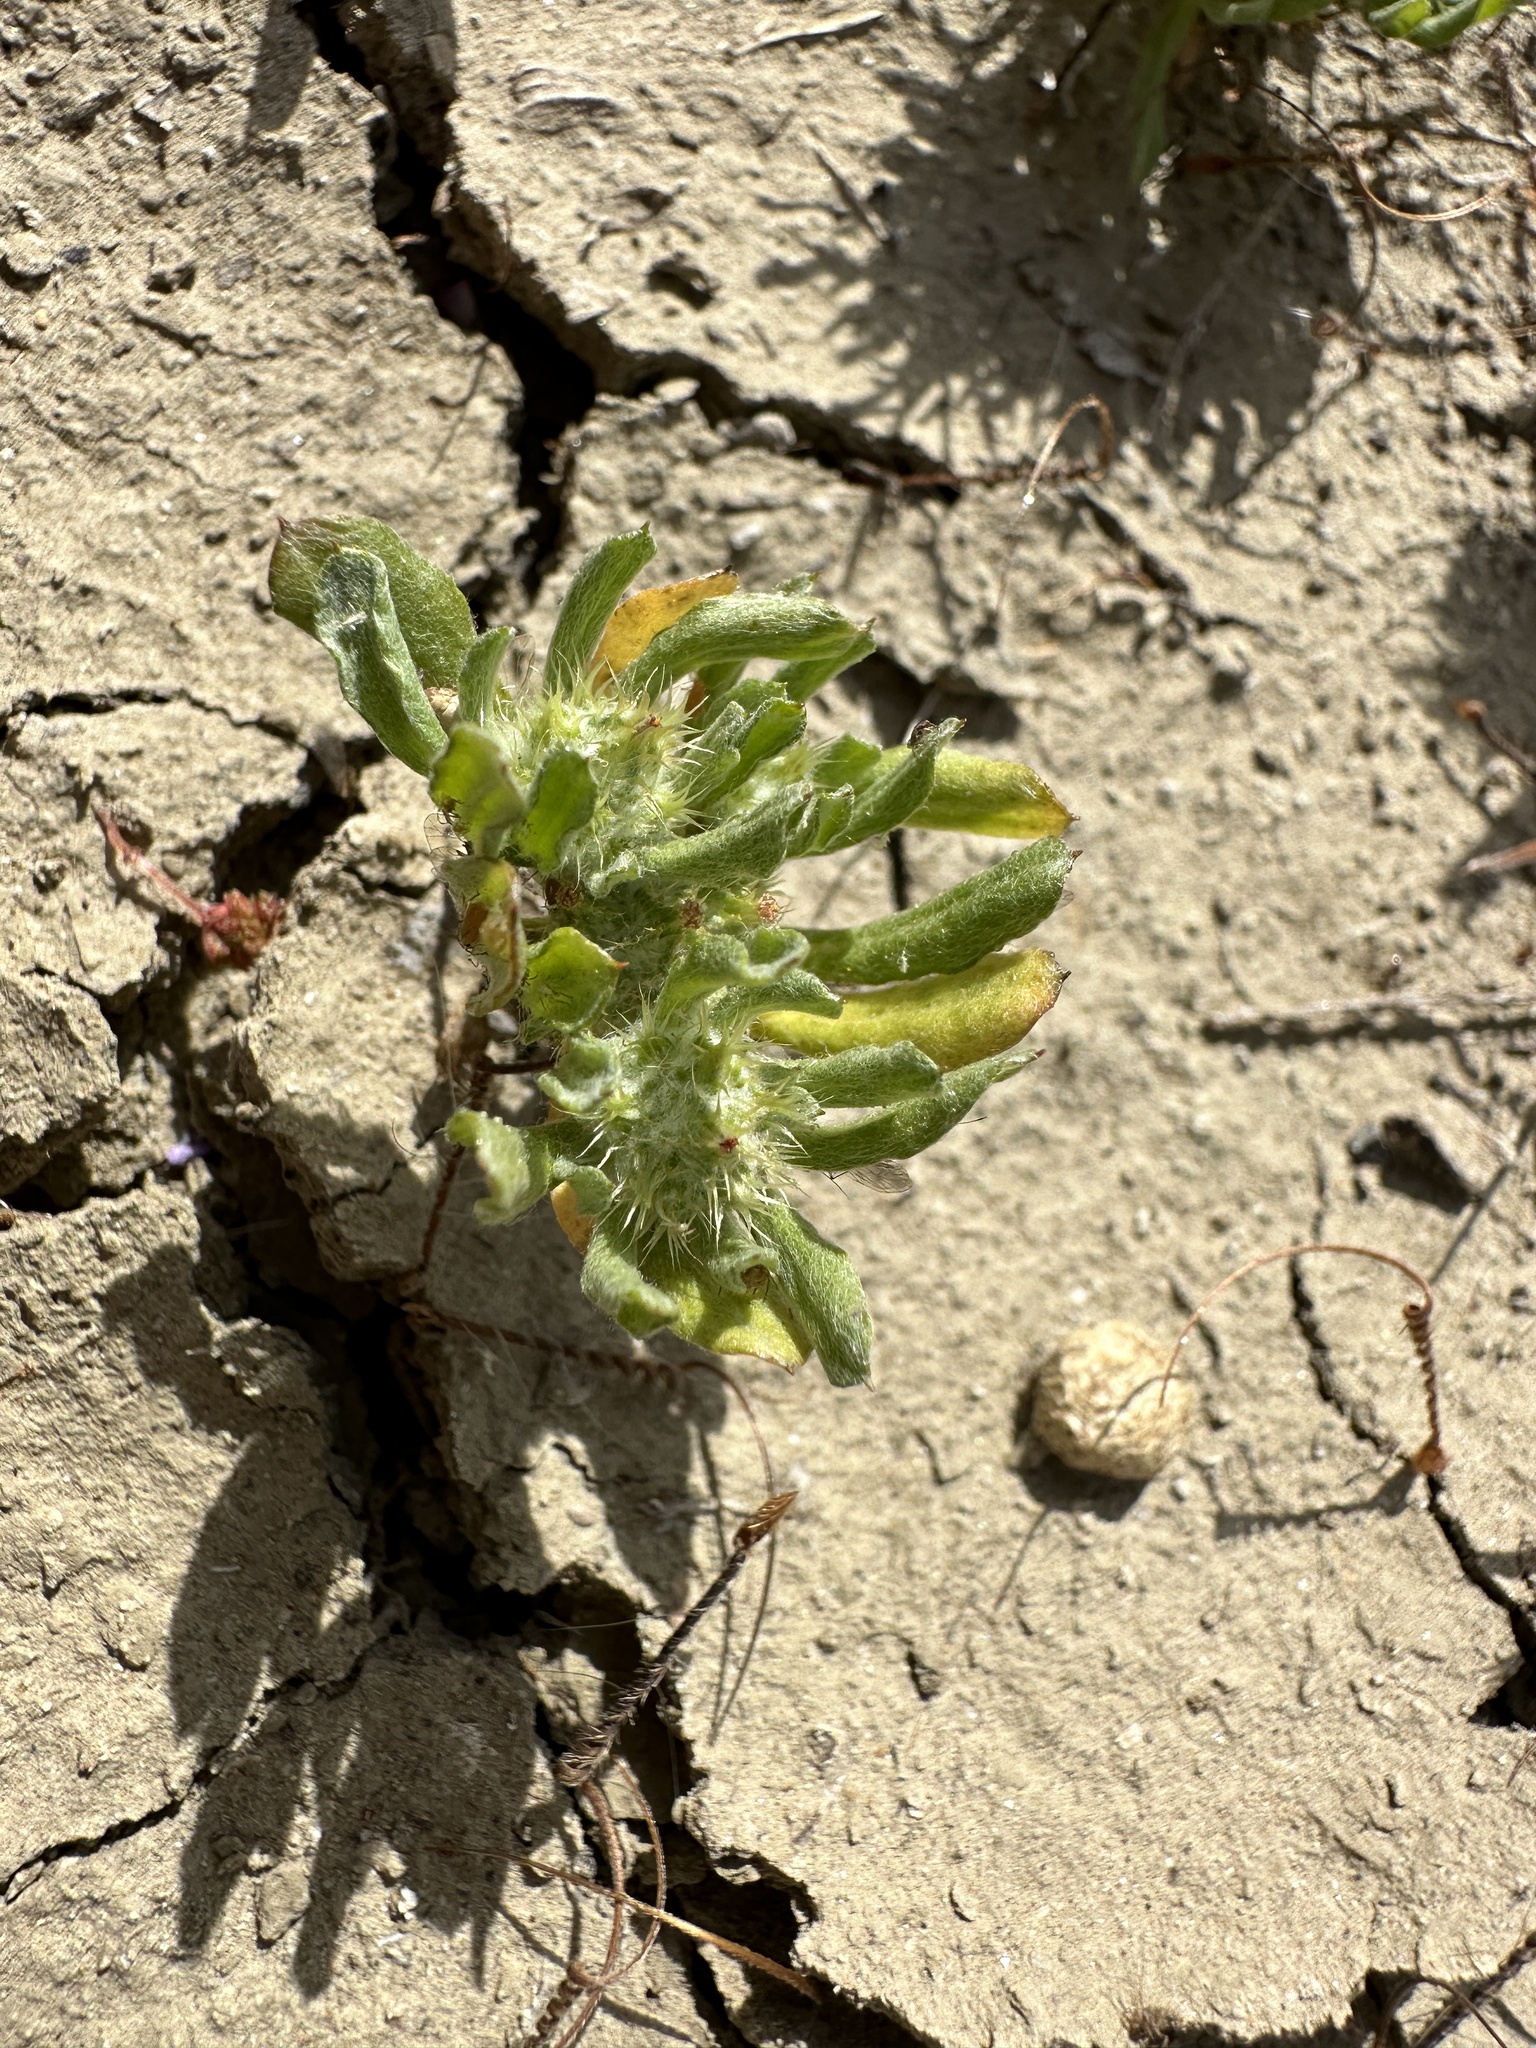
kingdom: Plantae
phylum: Tracheophyta
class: Magnoliopsida
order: Asterales
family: Asteraceae
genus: Filago
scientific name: Filago pyramidata
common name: Broad-leaved cudweed
